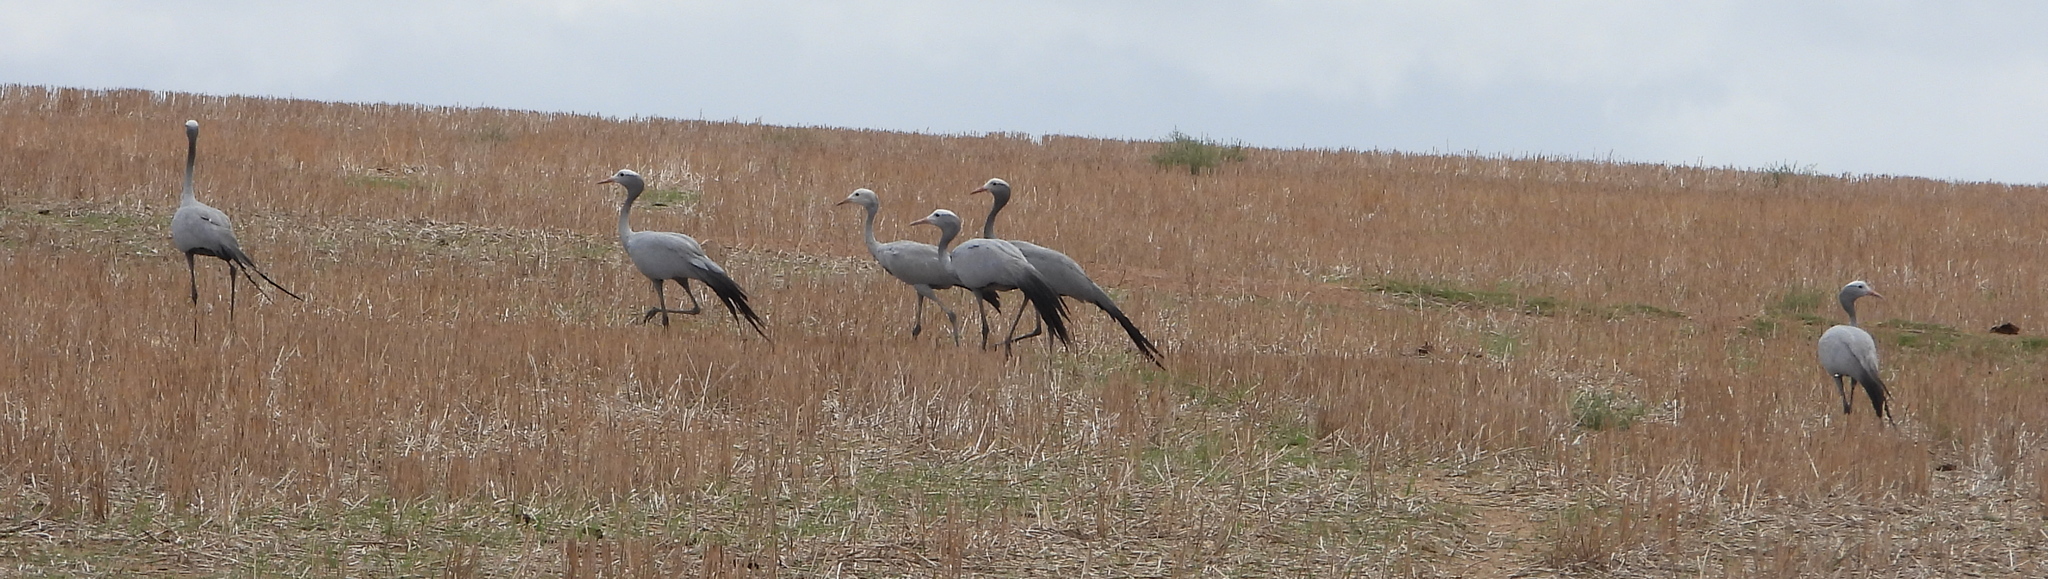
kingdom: Animalia
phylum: Chordata
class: Aves
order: Gruiformes
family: Gruidae
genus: Anthropoides
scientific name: Anthropoides paradiseus
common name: Blue crane
